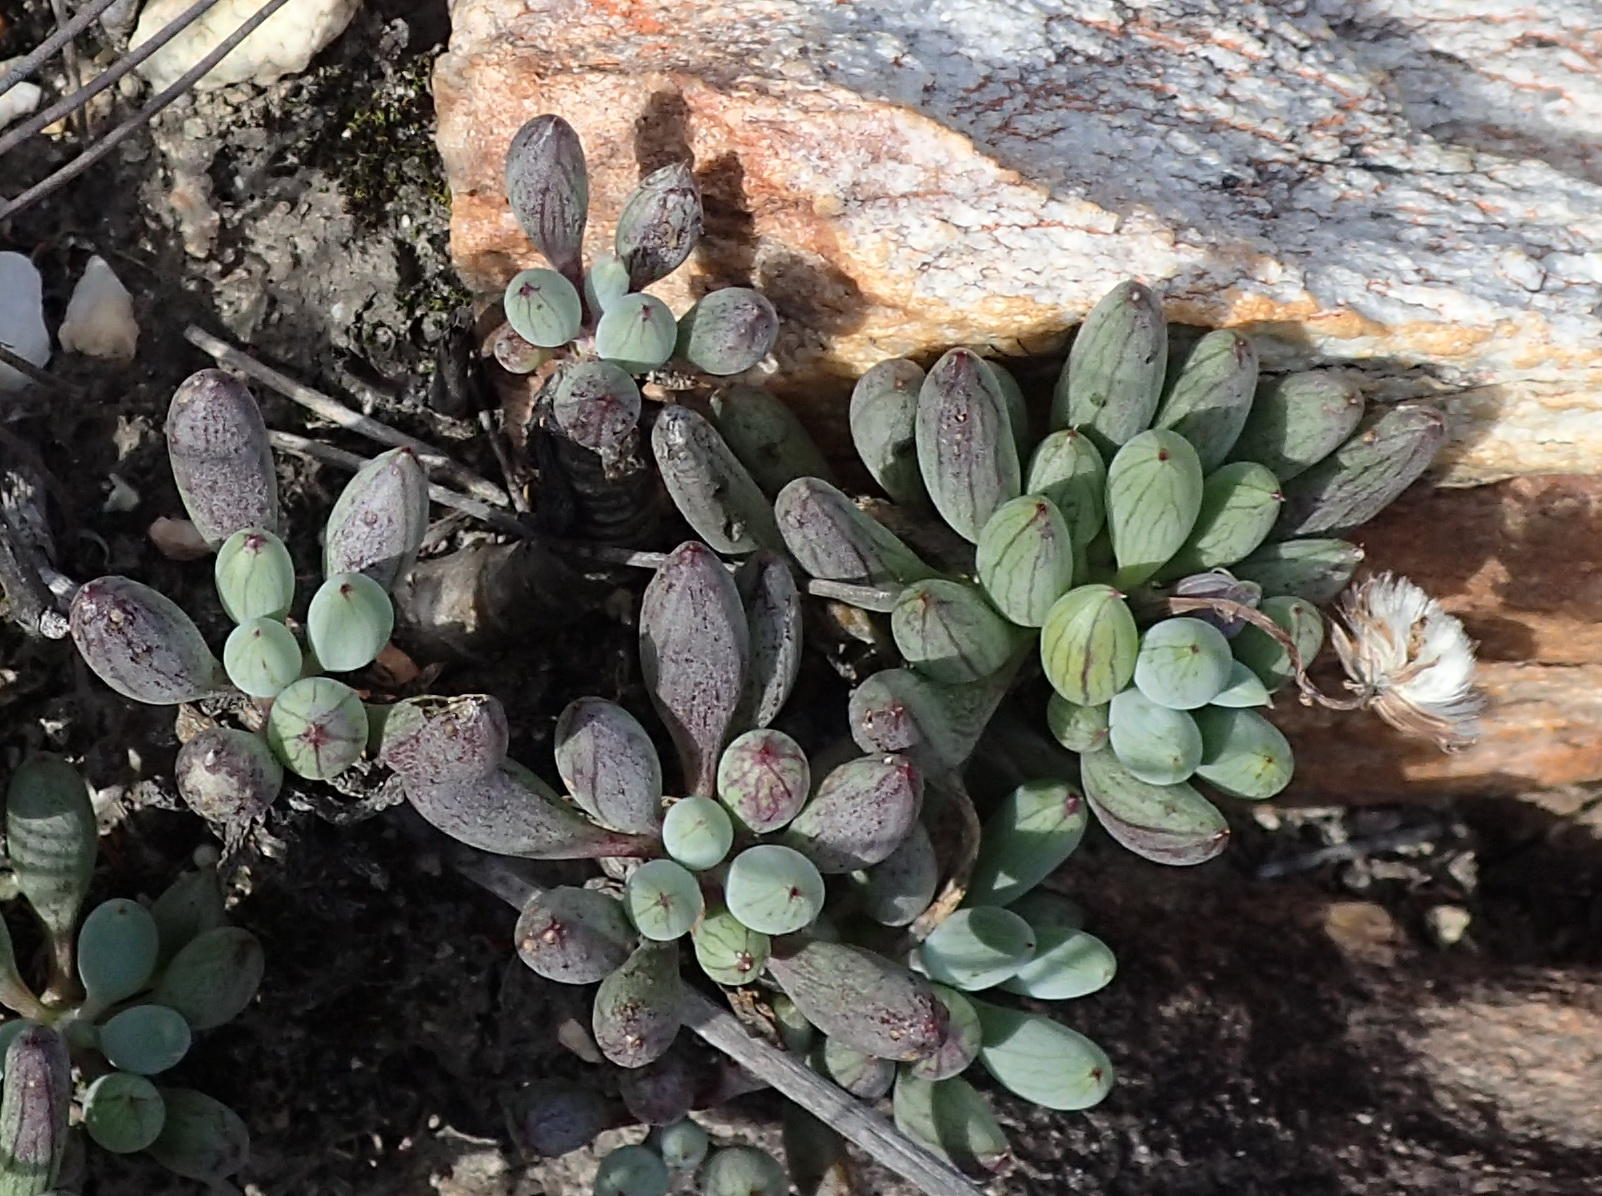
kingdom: Plantae
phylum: Tracheophyta
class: Magnoliopsida
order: Asterales
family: Asteraceae
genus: Curio
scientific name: Curio crassulifolius
